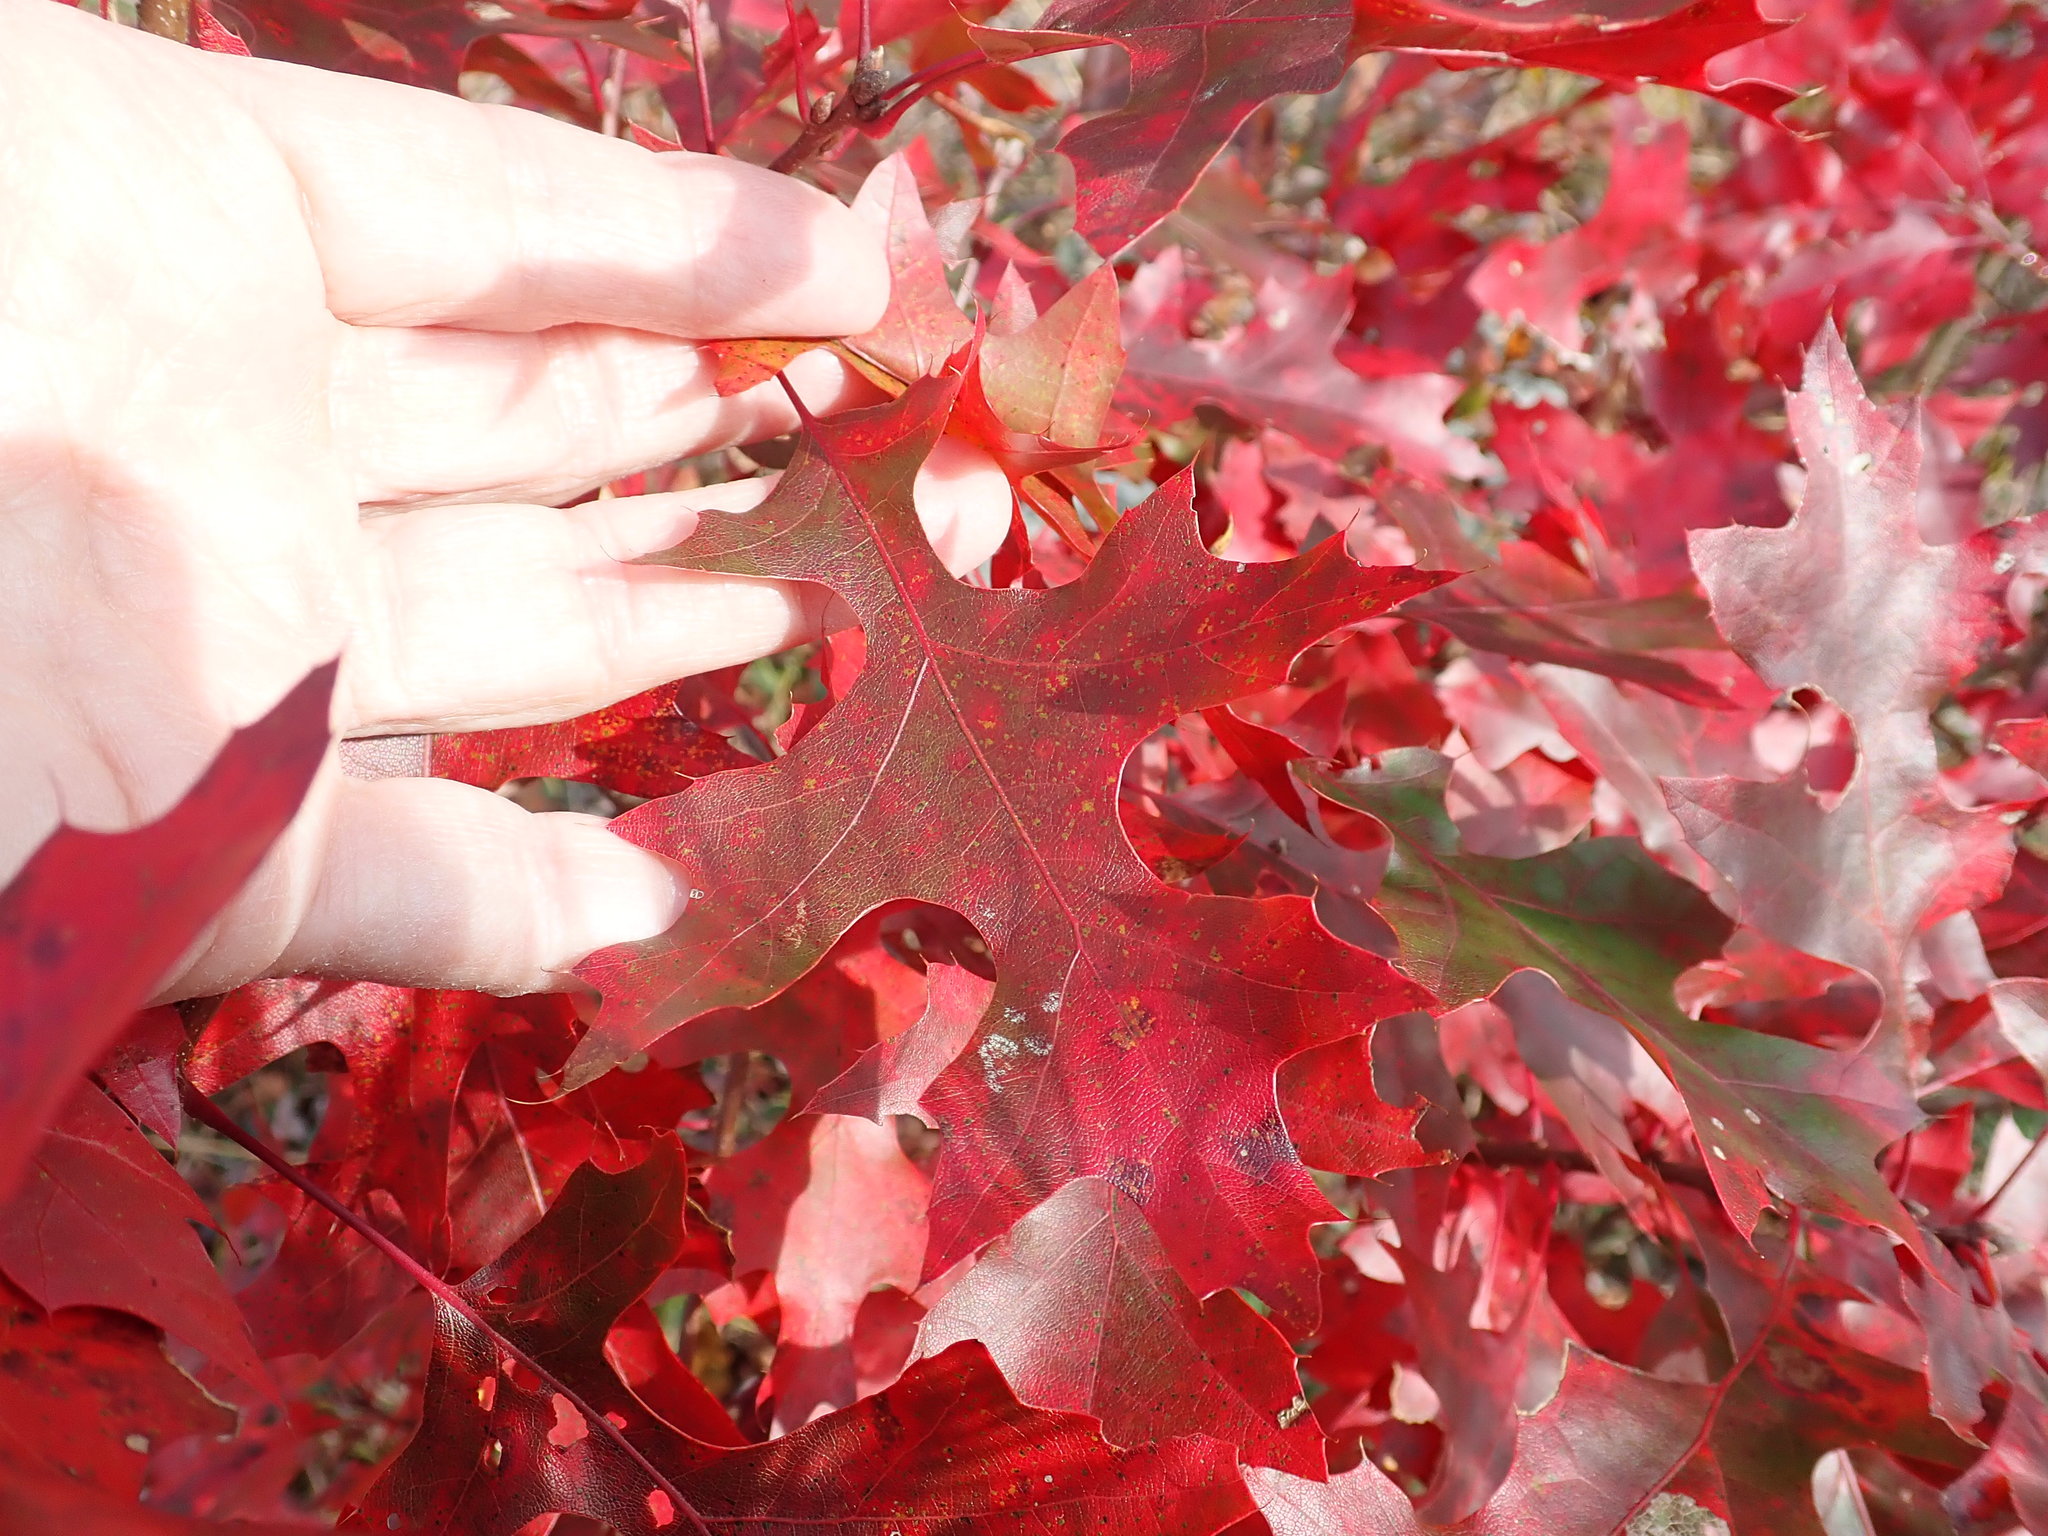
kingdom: Plantae
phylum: Tracheophyta
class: Magnoliopsida
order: Fagales
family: Fagaceae
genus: Quercus
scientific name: Quercus coccinea
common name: Scarlet oak
